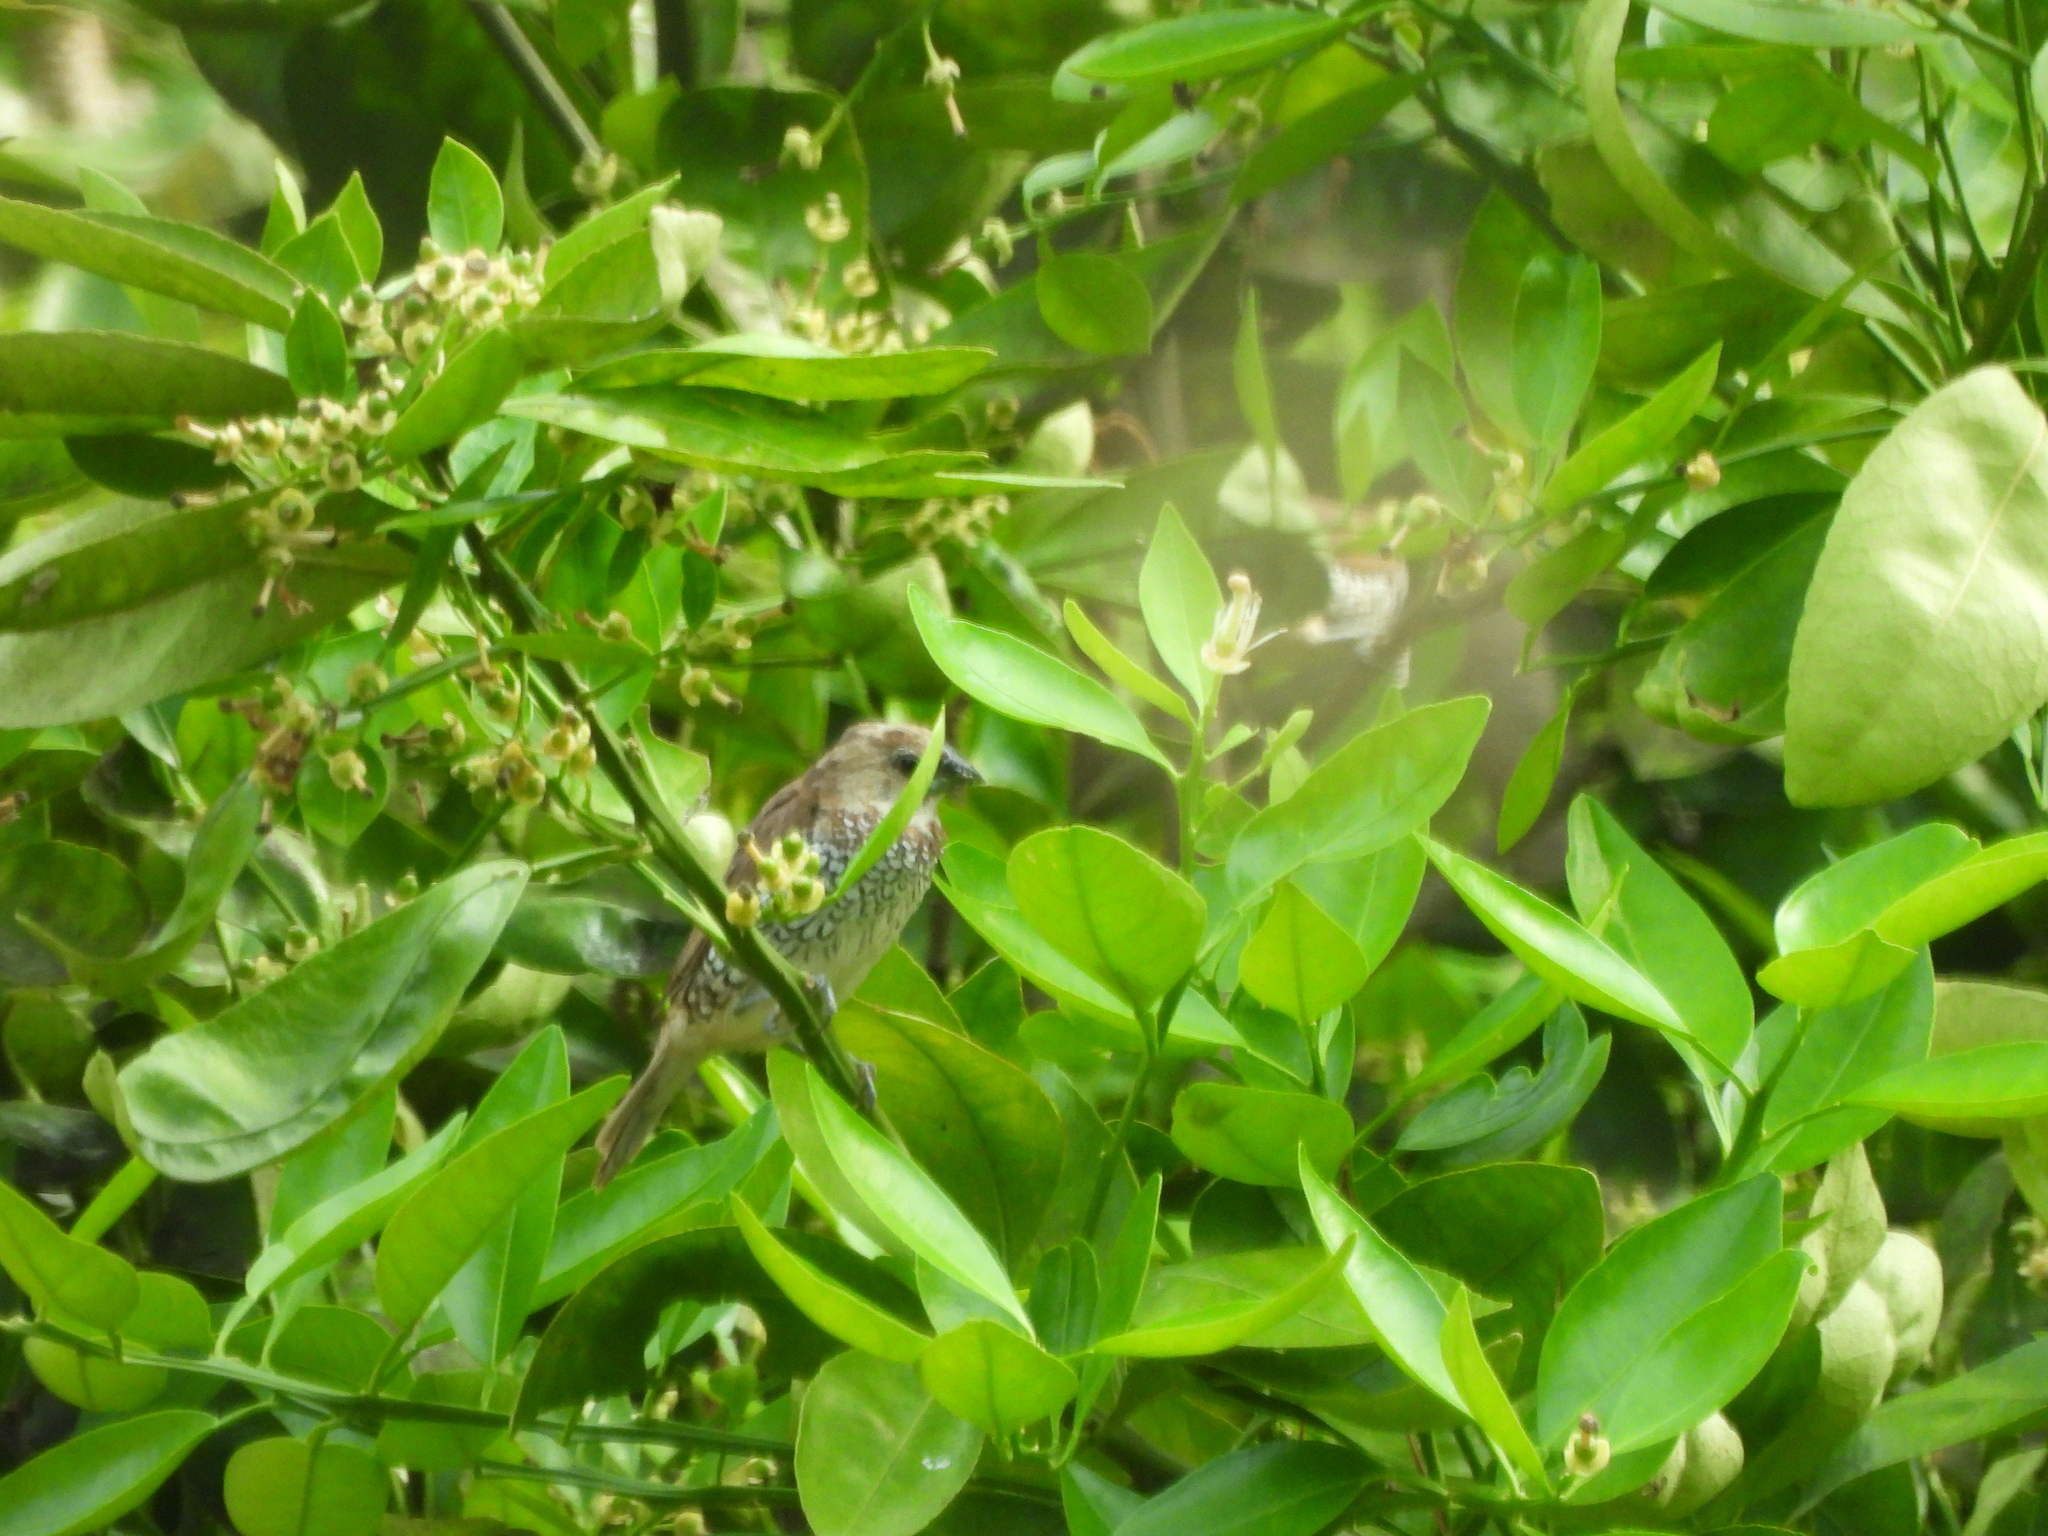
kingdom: Animalia
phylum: Chordata
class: Aves
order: Passeriformes
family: Estrildidae
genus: Lonchura
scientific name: Lonchura punctulata
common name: Scaly-breasted munia
